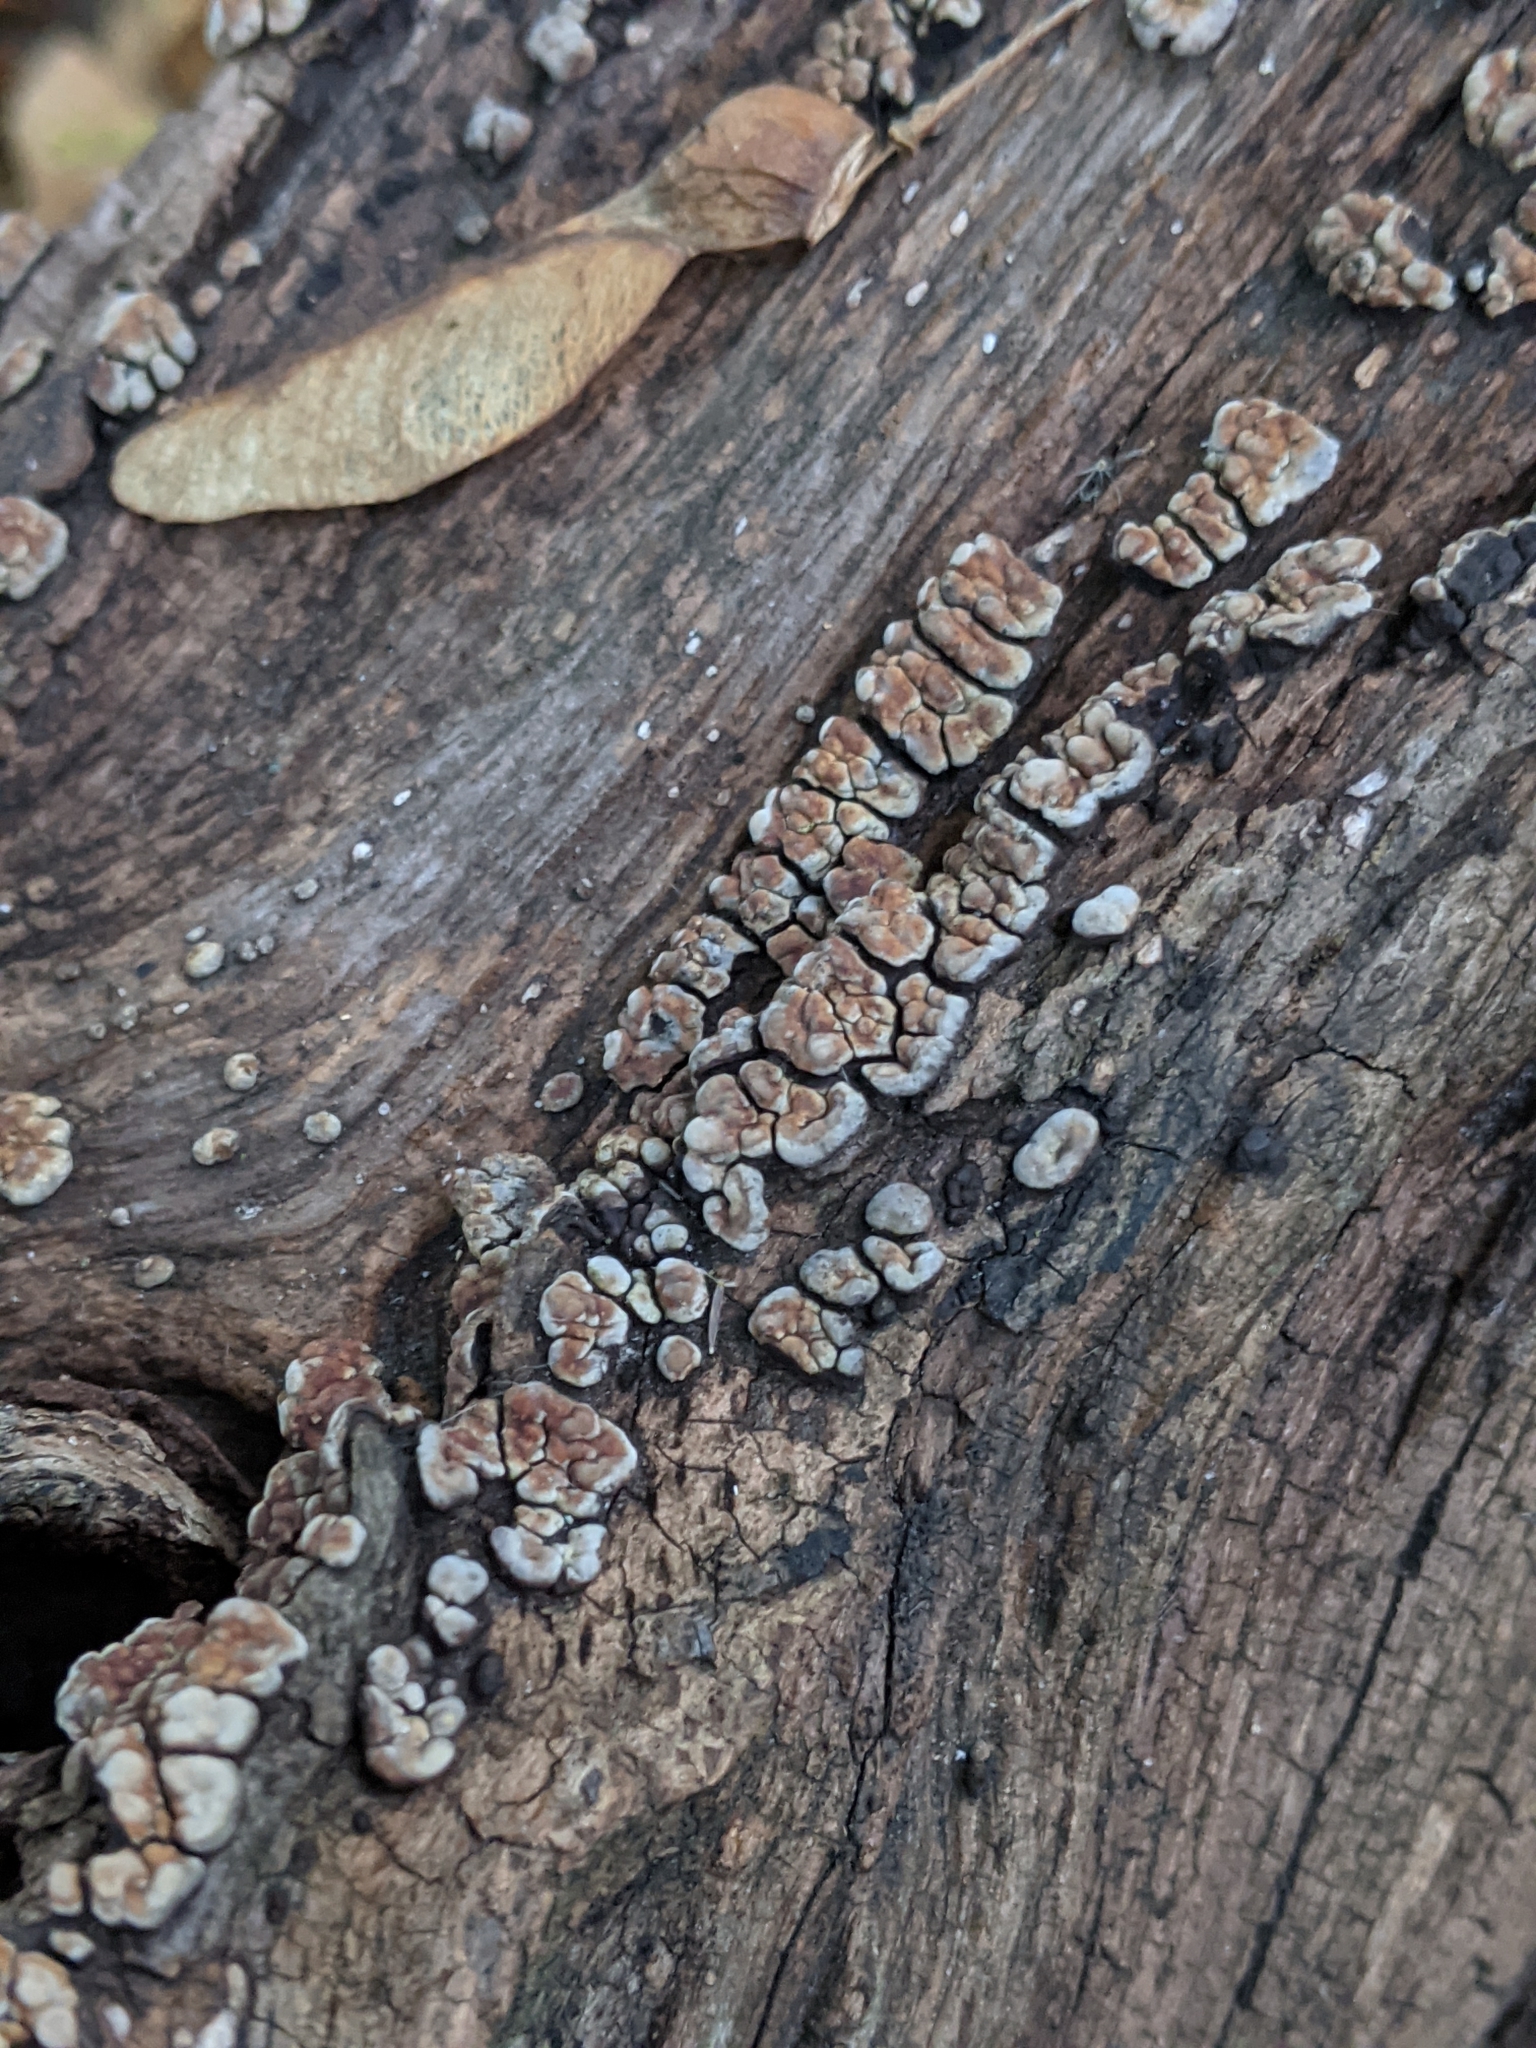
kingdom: Fungi
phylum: Basidiomycota
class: Agaricomycetes
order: Russulales
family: Stereaceae
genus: Xylobolus
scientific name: Xylobolus frustulatus
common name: Ceramic parchment
